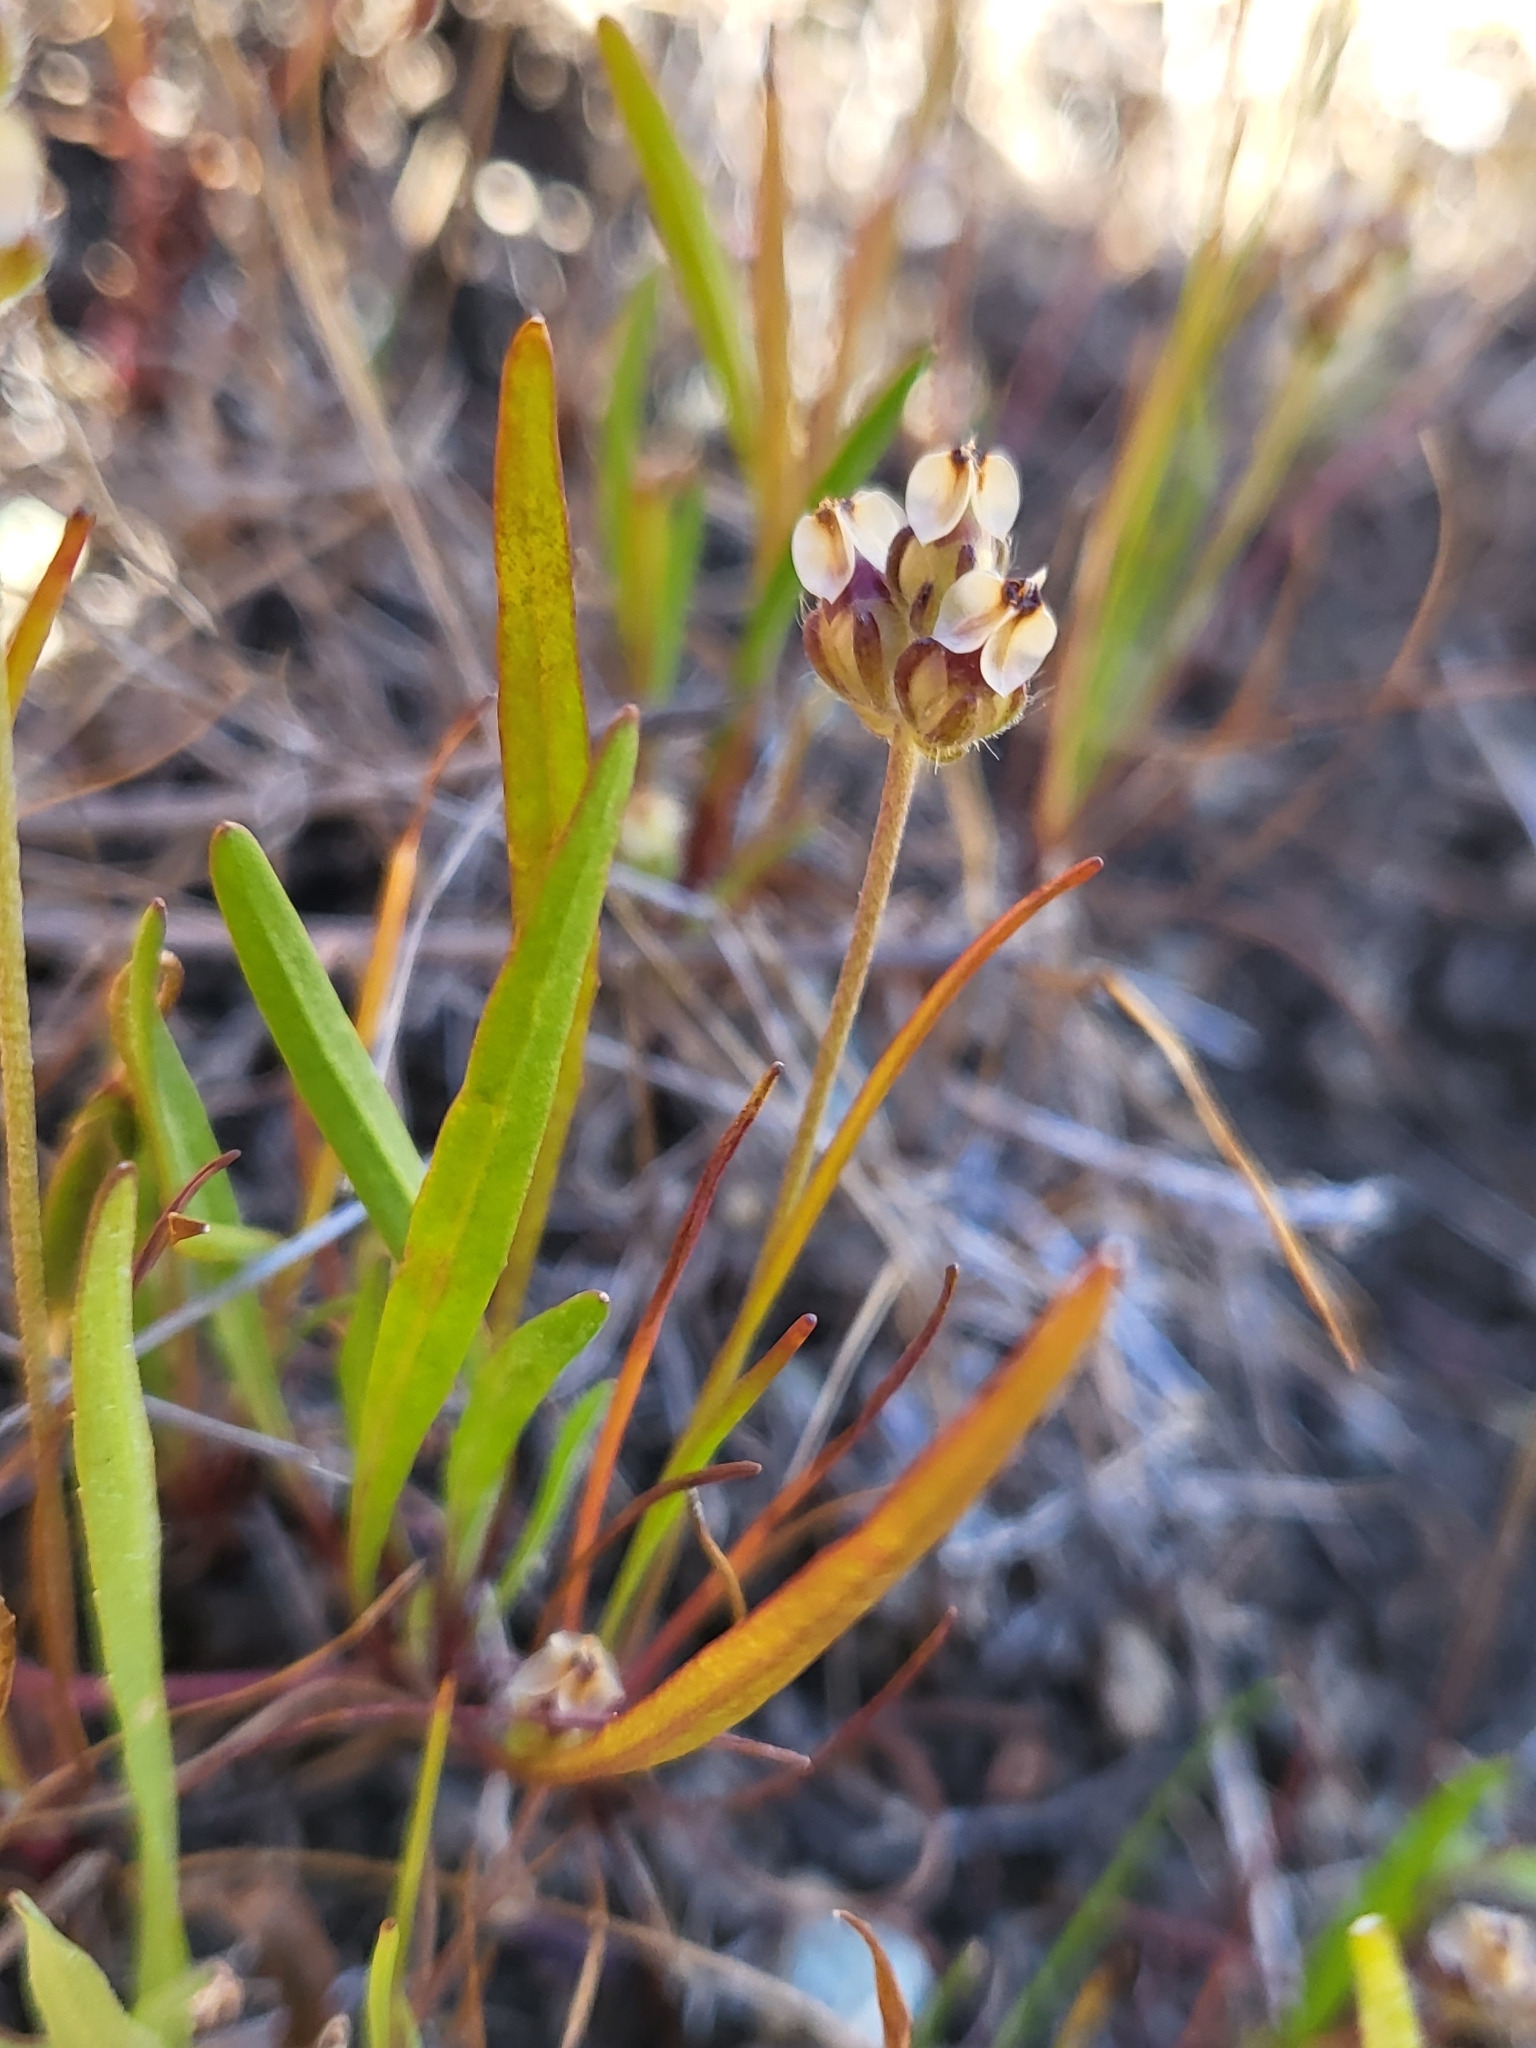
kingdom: Plantae
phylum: Tracheophyta
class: Magnoliopsida
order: Lamiales
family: Plantaginaceae
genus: Plantago
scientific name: Plantago erecta
